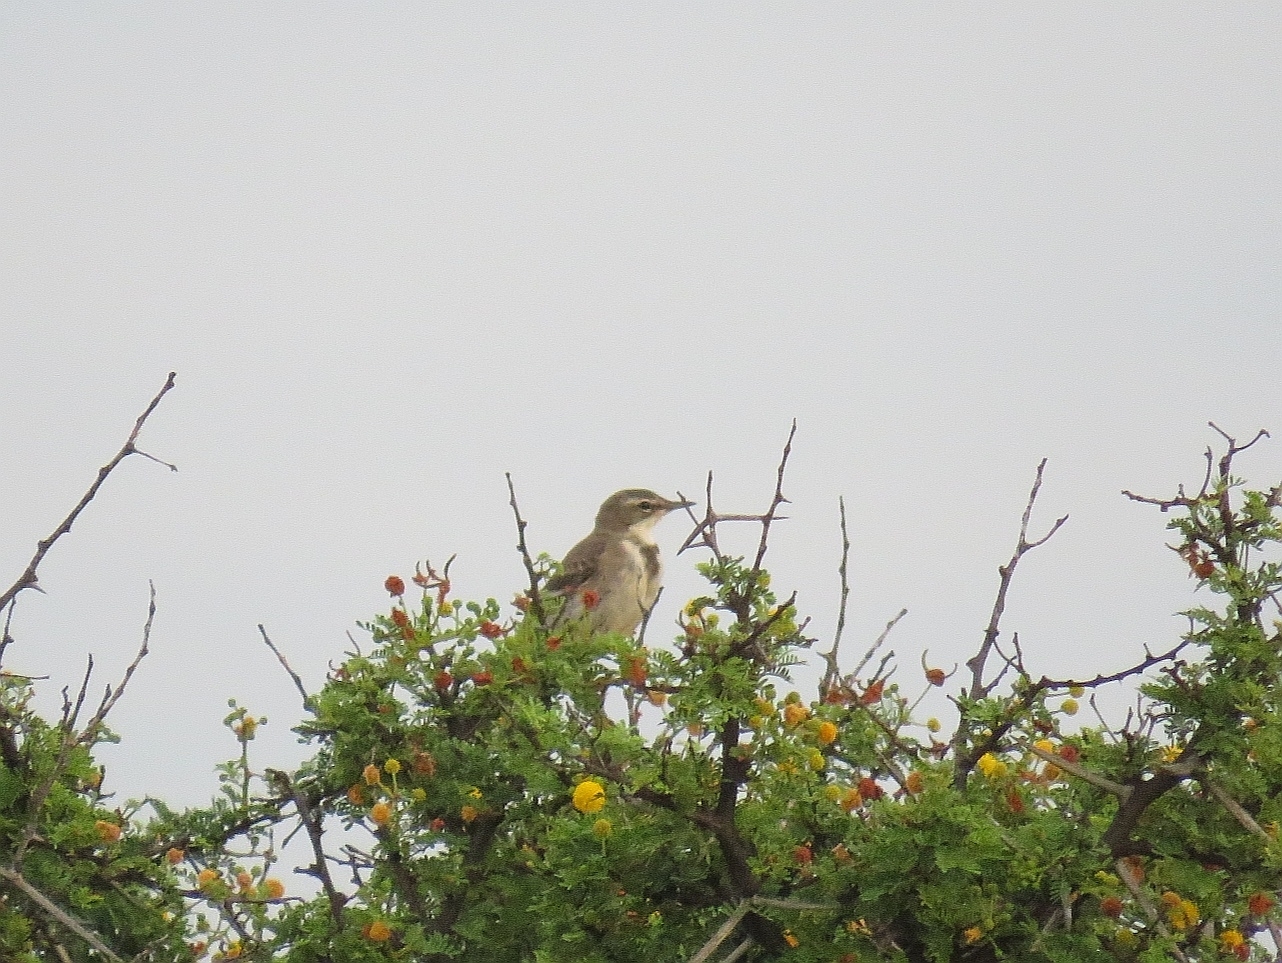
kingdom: Animalia
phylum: Chordata
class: Aves
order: Passeriformes
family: Motacillidae
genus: Motacilla
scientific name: Motacilla capensis
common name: Cape wagtail
